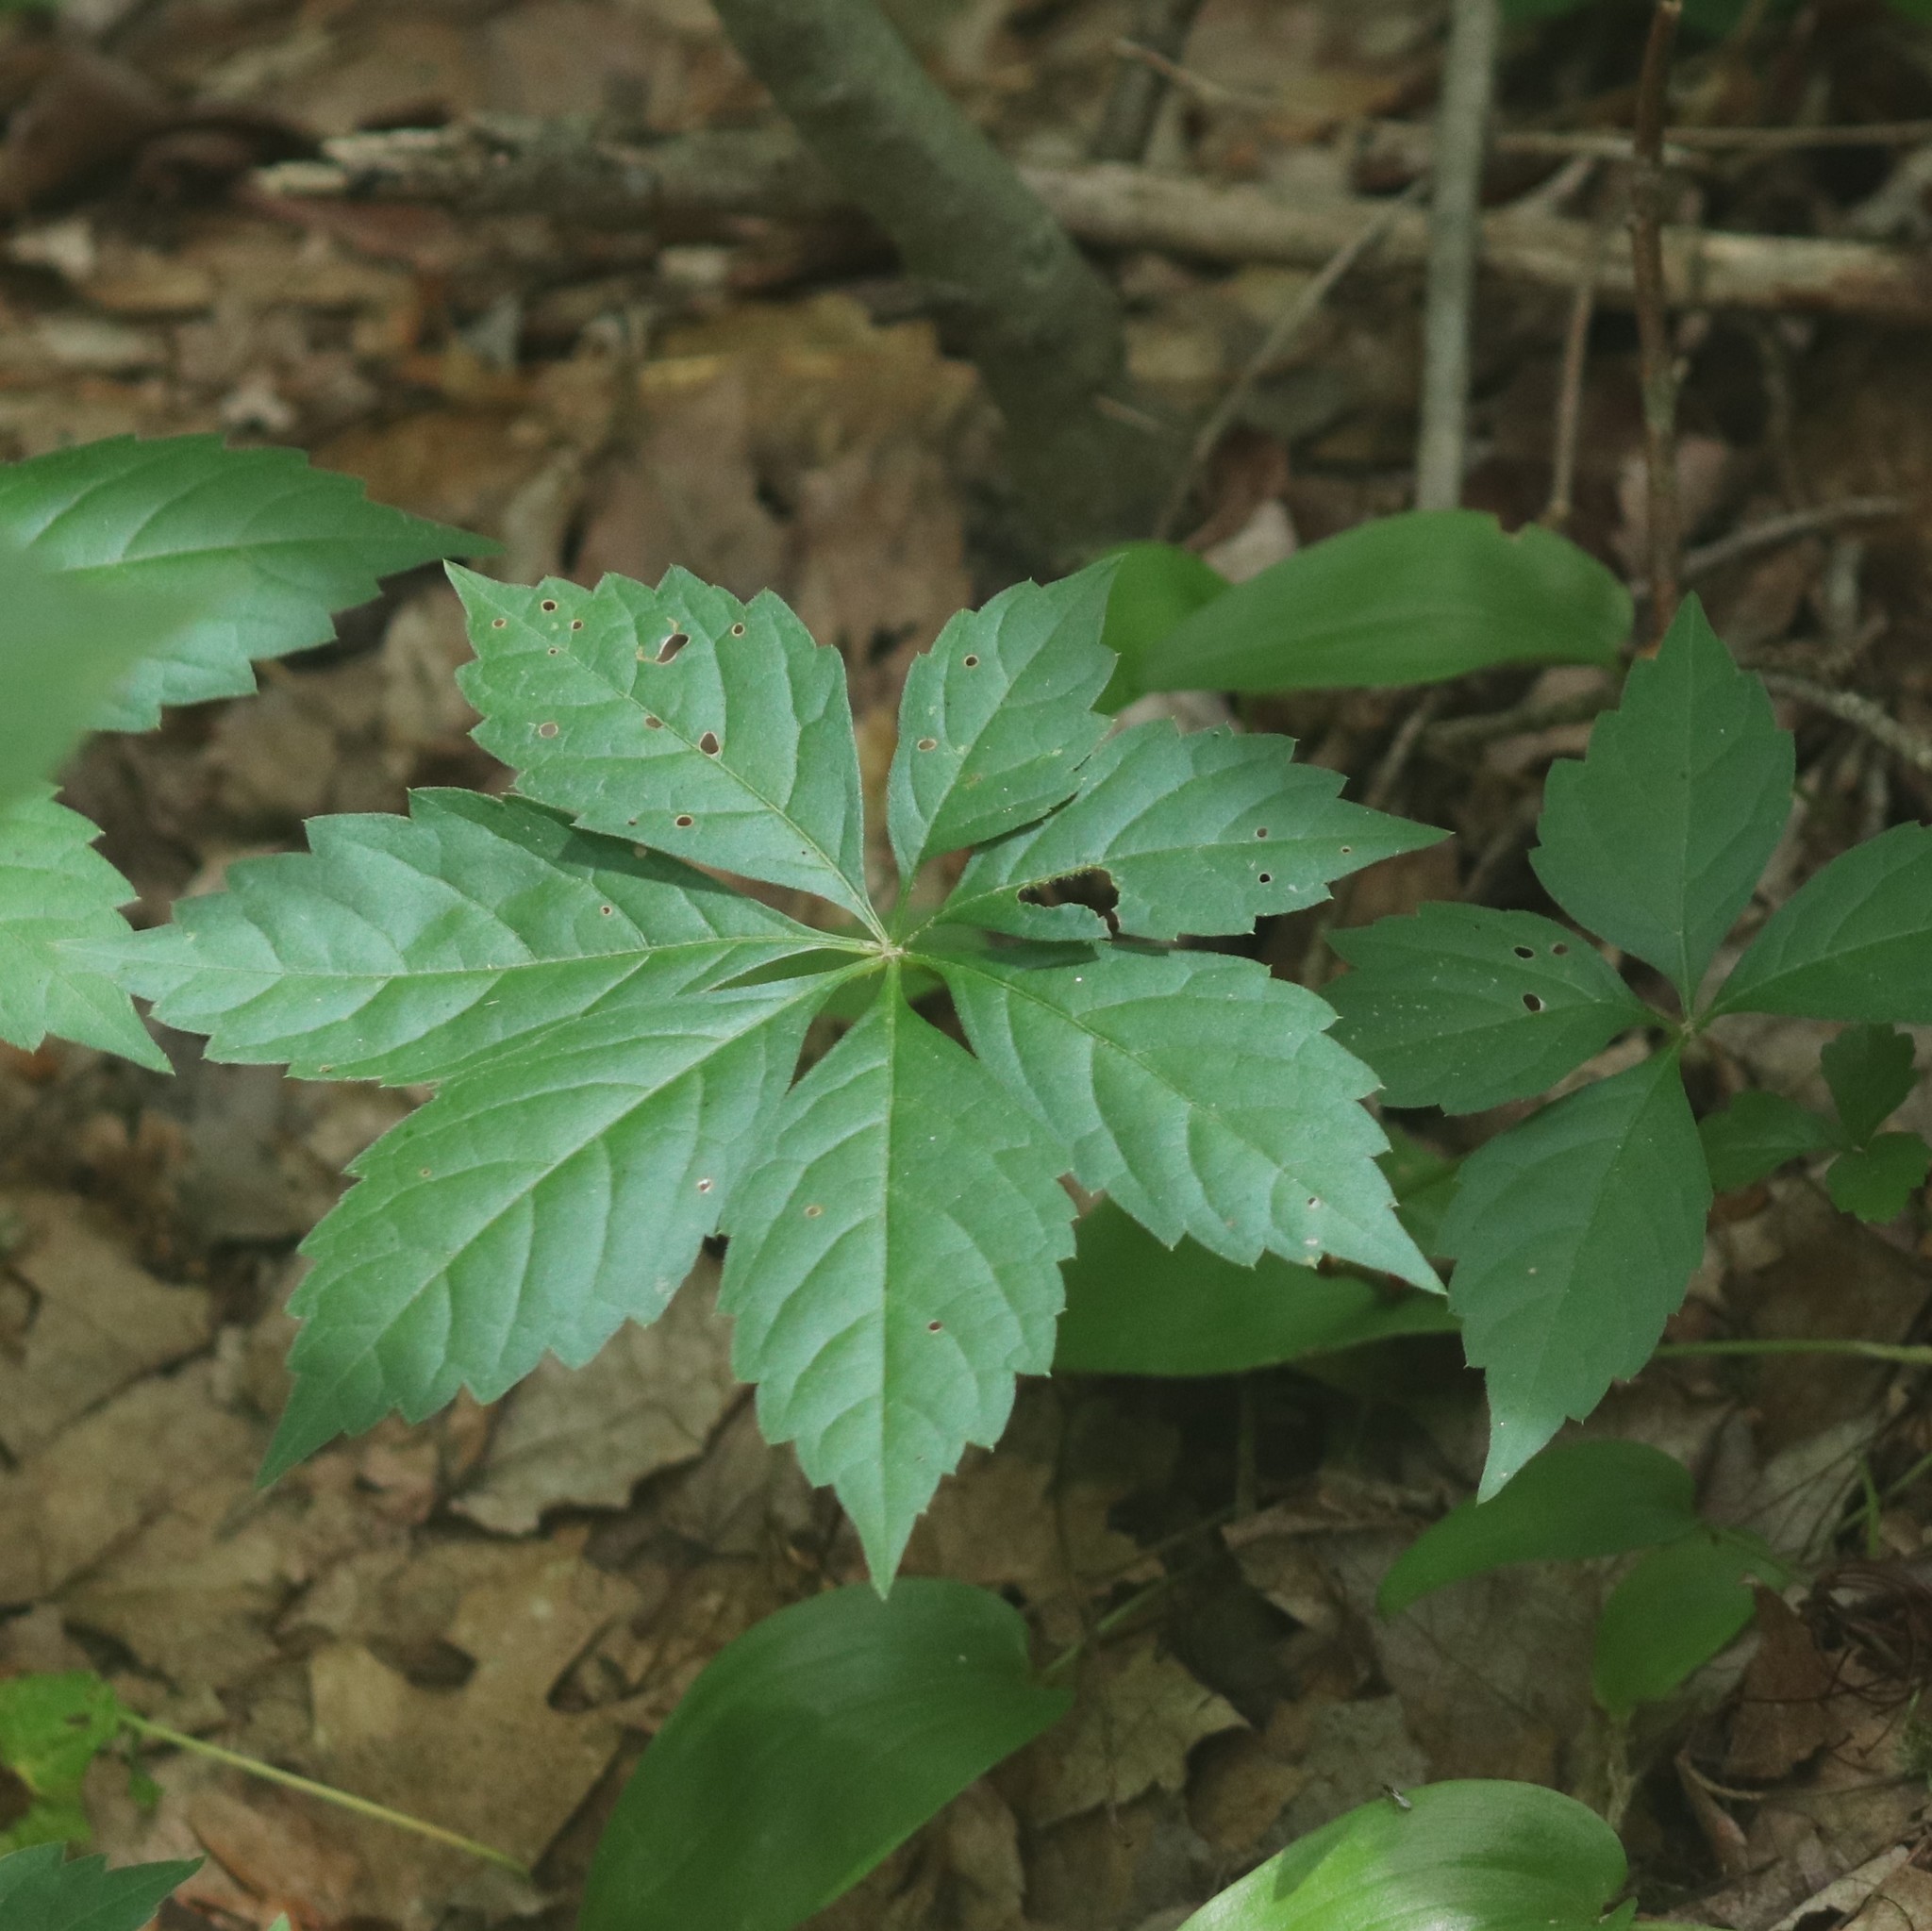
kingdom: Plantae
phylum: Tracheophyta
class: Magnoliopsida
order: Vitales
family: Vitaceae
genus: Parthenocissus
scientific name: Parthenocissus quinquefolia
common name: Virginia-creeper
